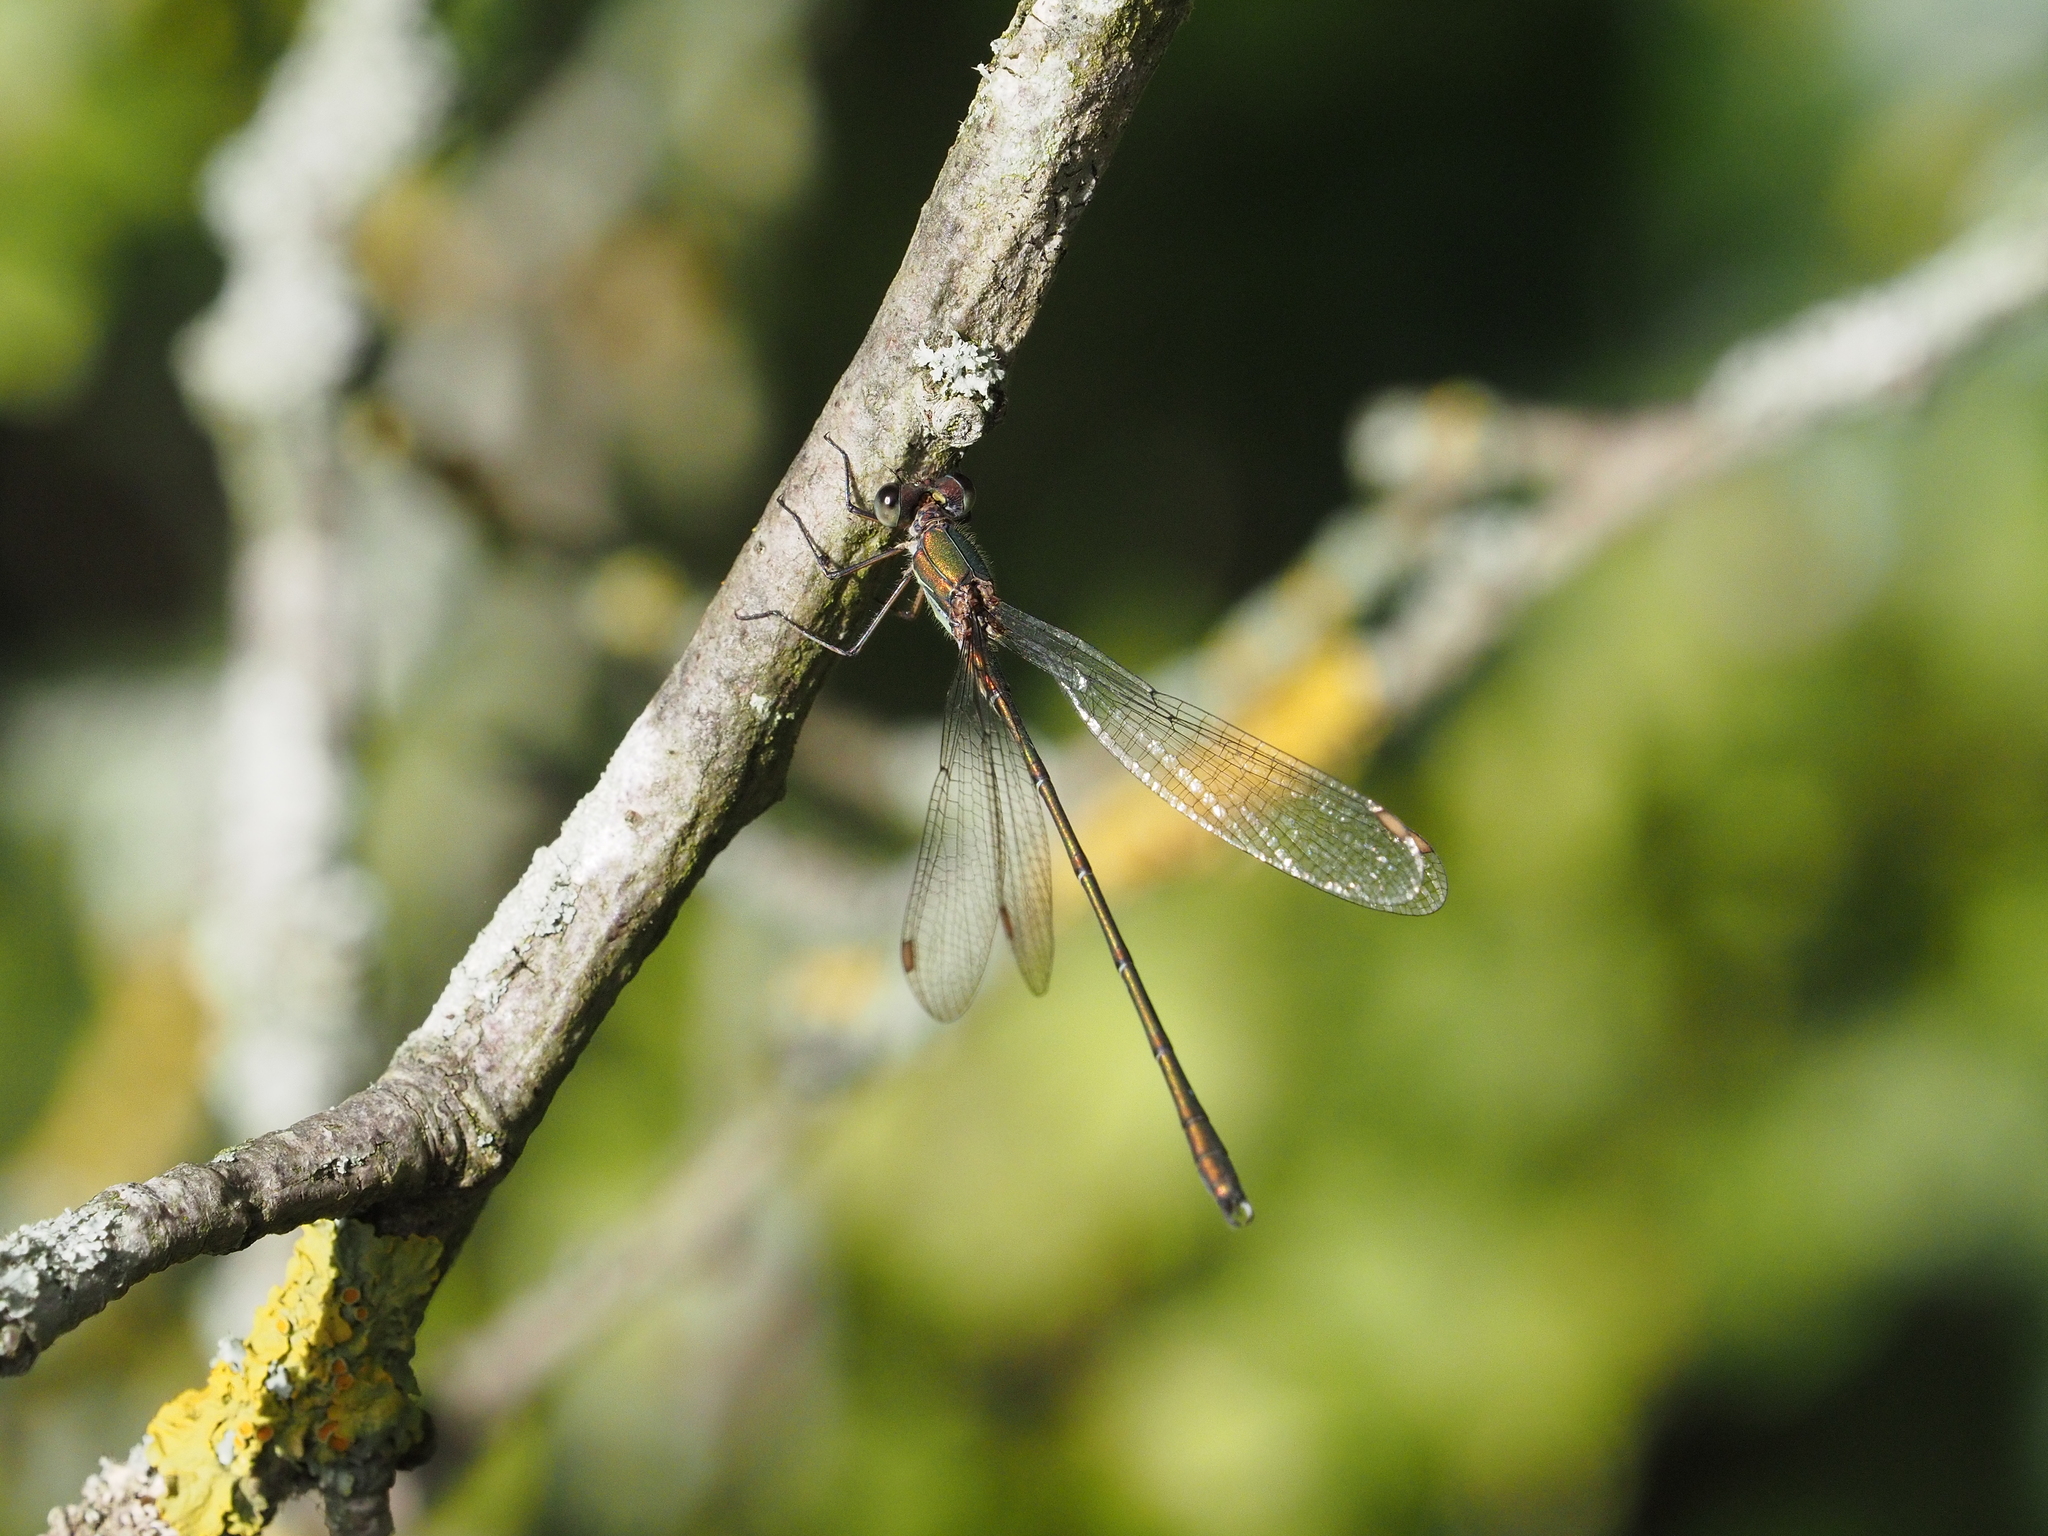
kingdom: Animalia
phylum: Arthropoda
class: Insecta
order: Odonata
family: Lestidae
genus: Chalcolestes
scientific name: Chalcolestes viridis
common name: Green emerald damselfly
